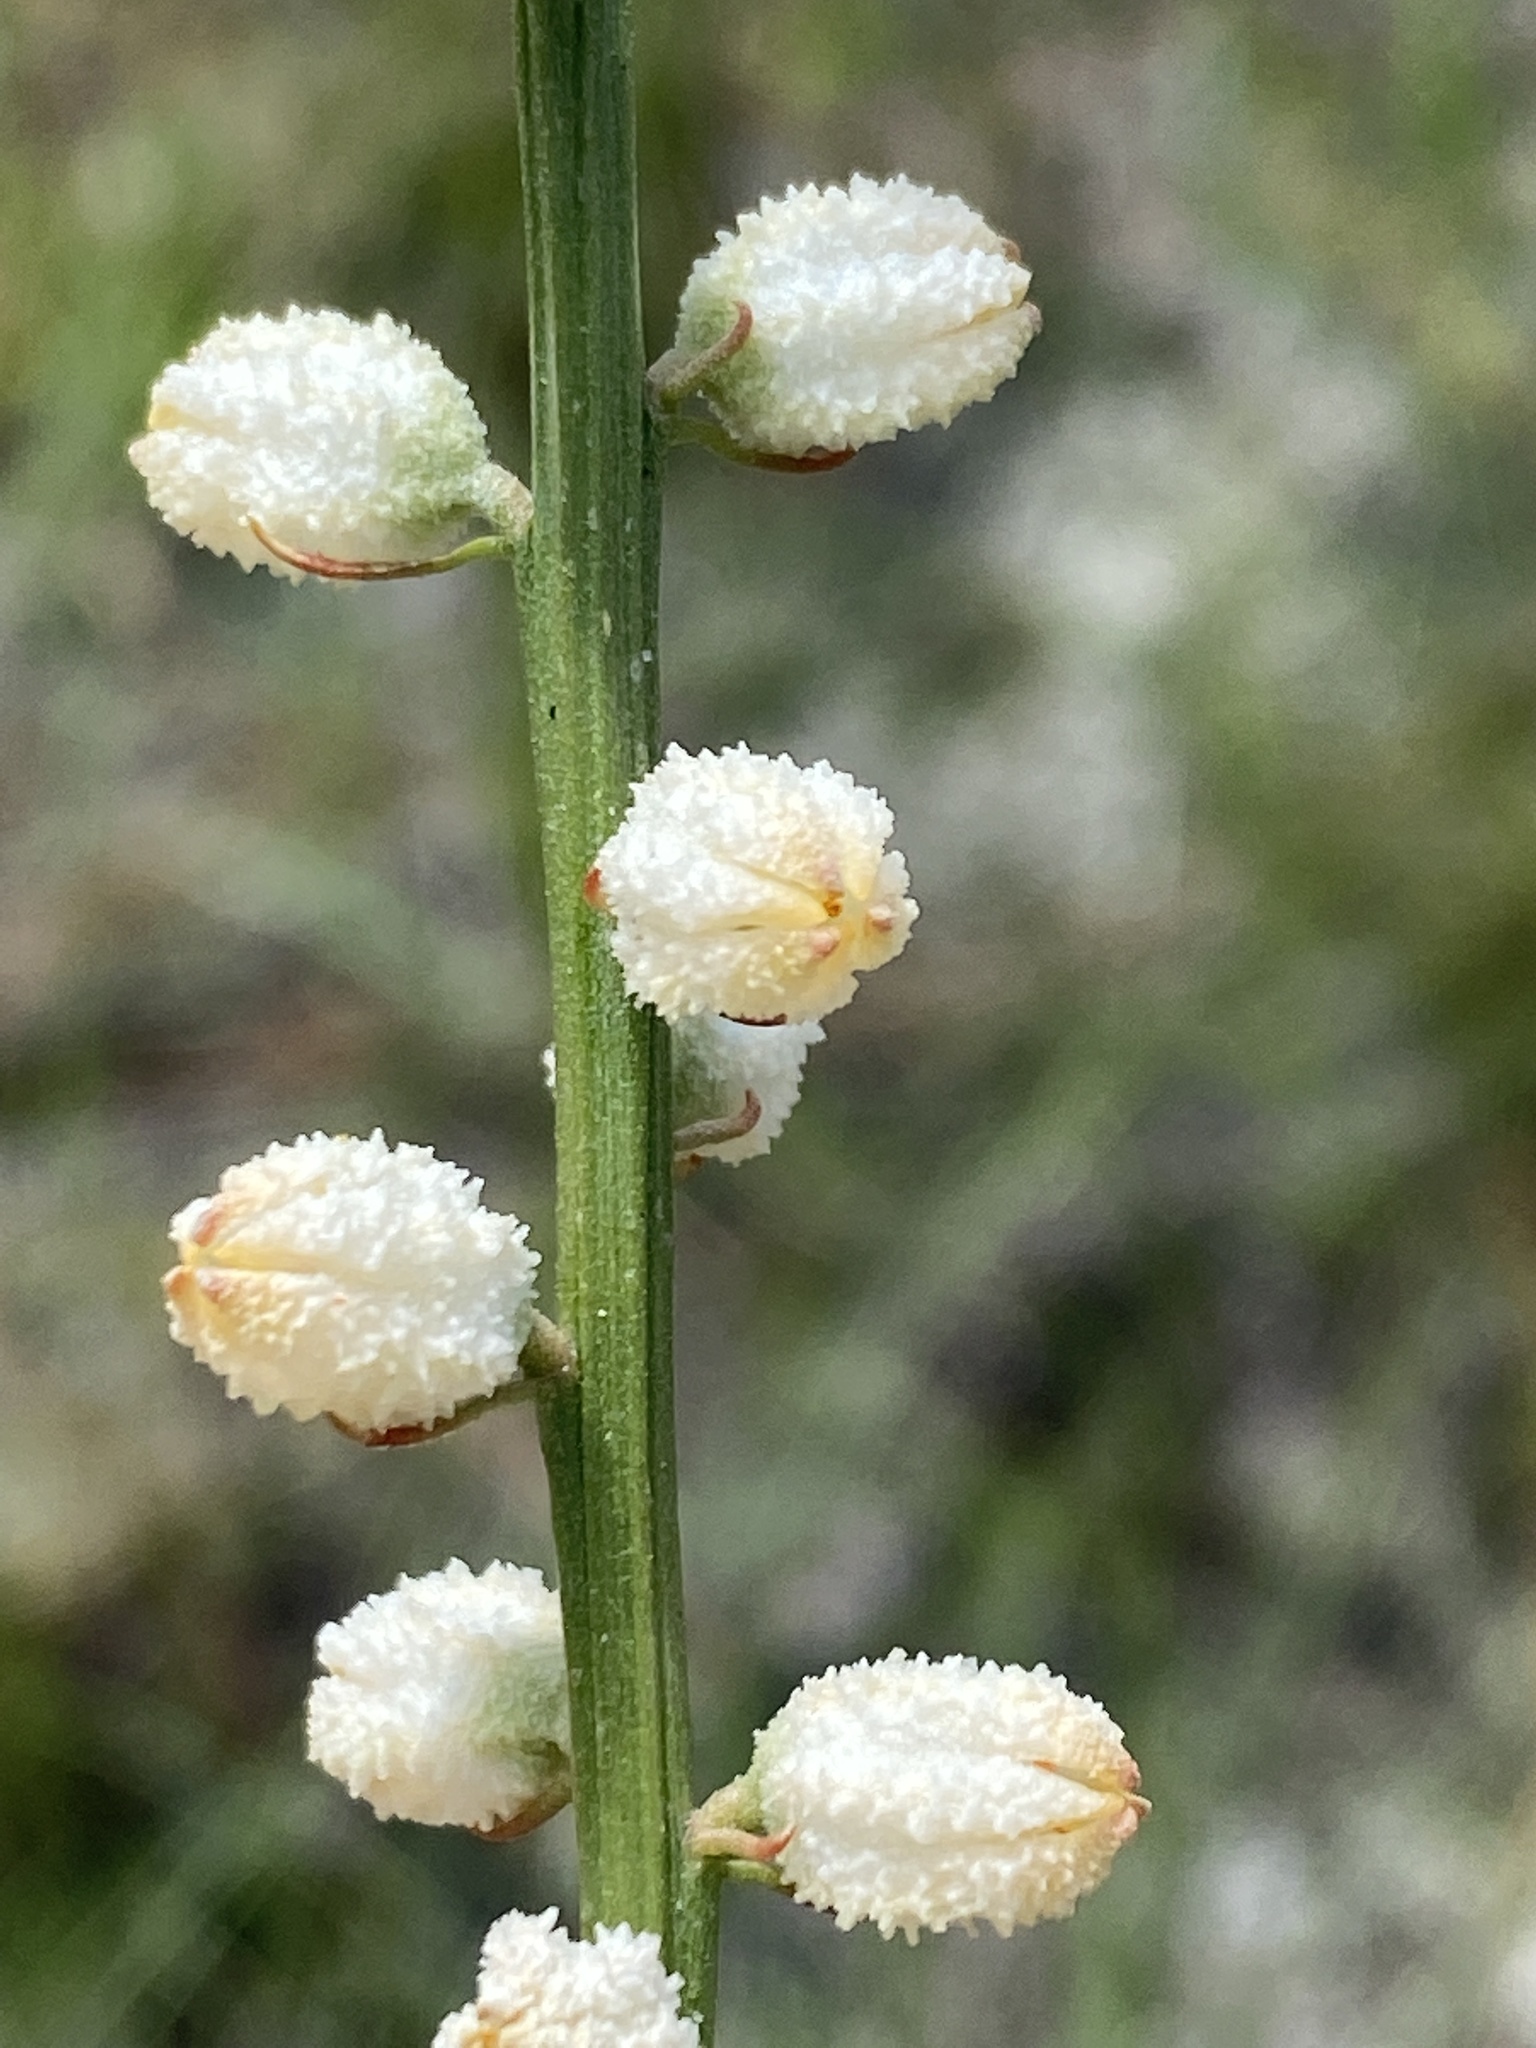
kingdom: Plantae
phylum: Tracheophyta
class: Liliopsida
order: Dioscoreales
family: Nartheciaceae
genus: Aletris
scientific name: Aletris obovata
